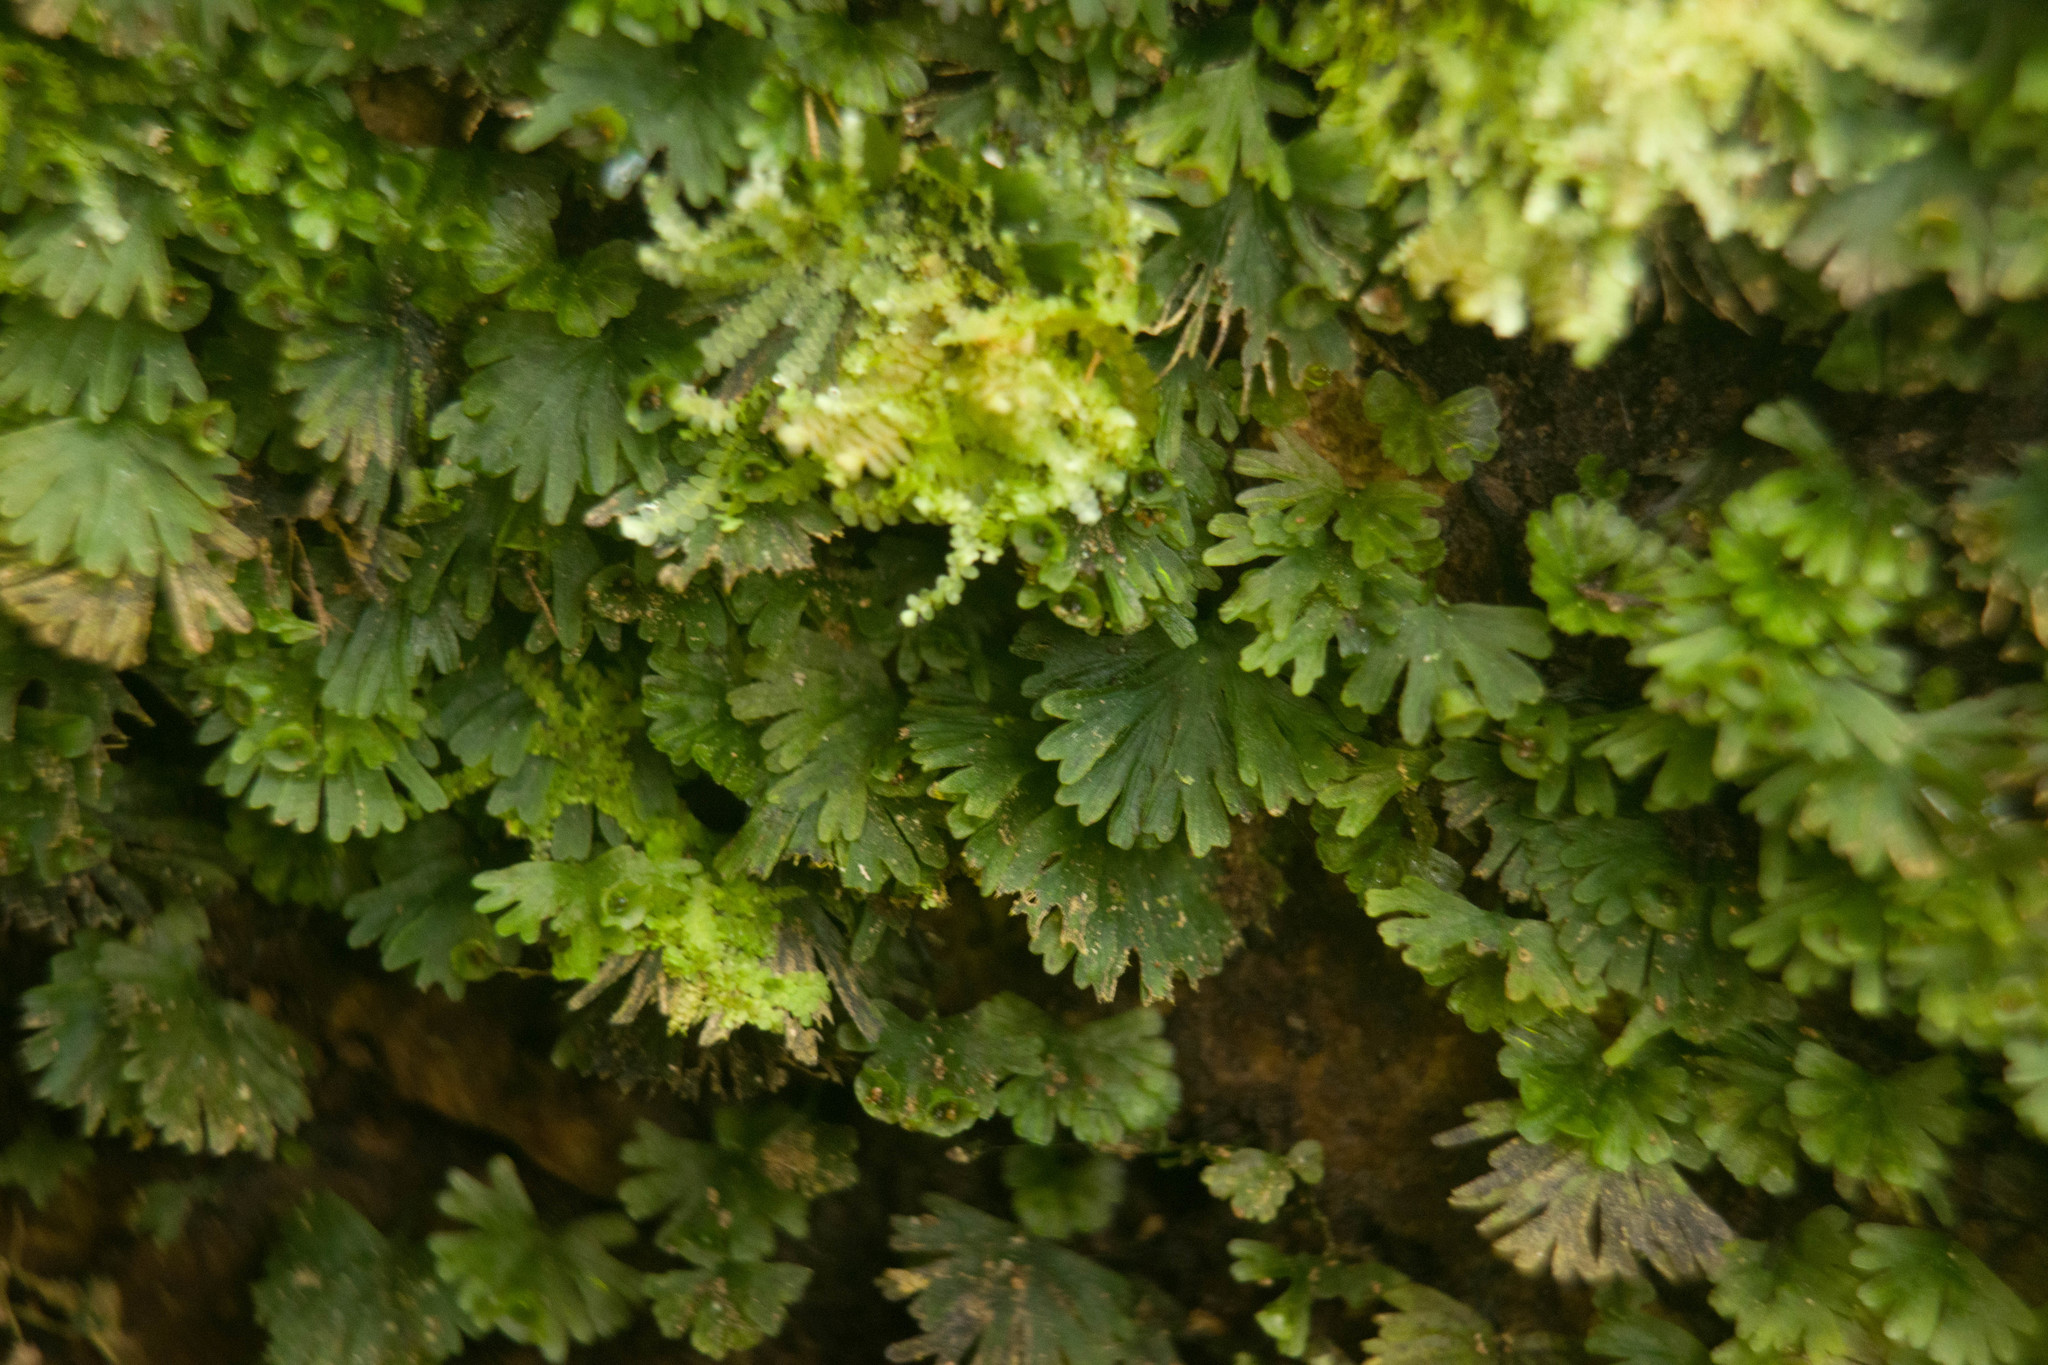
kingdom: Plantae
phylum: Tracheophyta
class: Polypodiopsida
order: Hymenophyllales
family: Hymenophyllaceae
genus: Crepidomanes
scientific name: Crepidomanes parvulum
